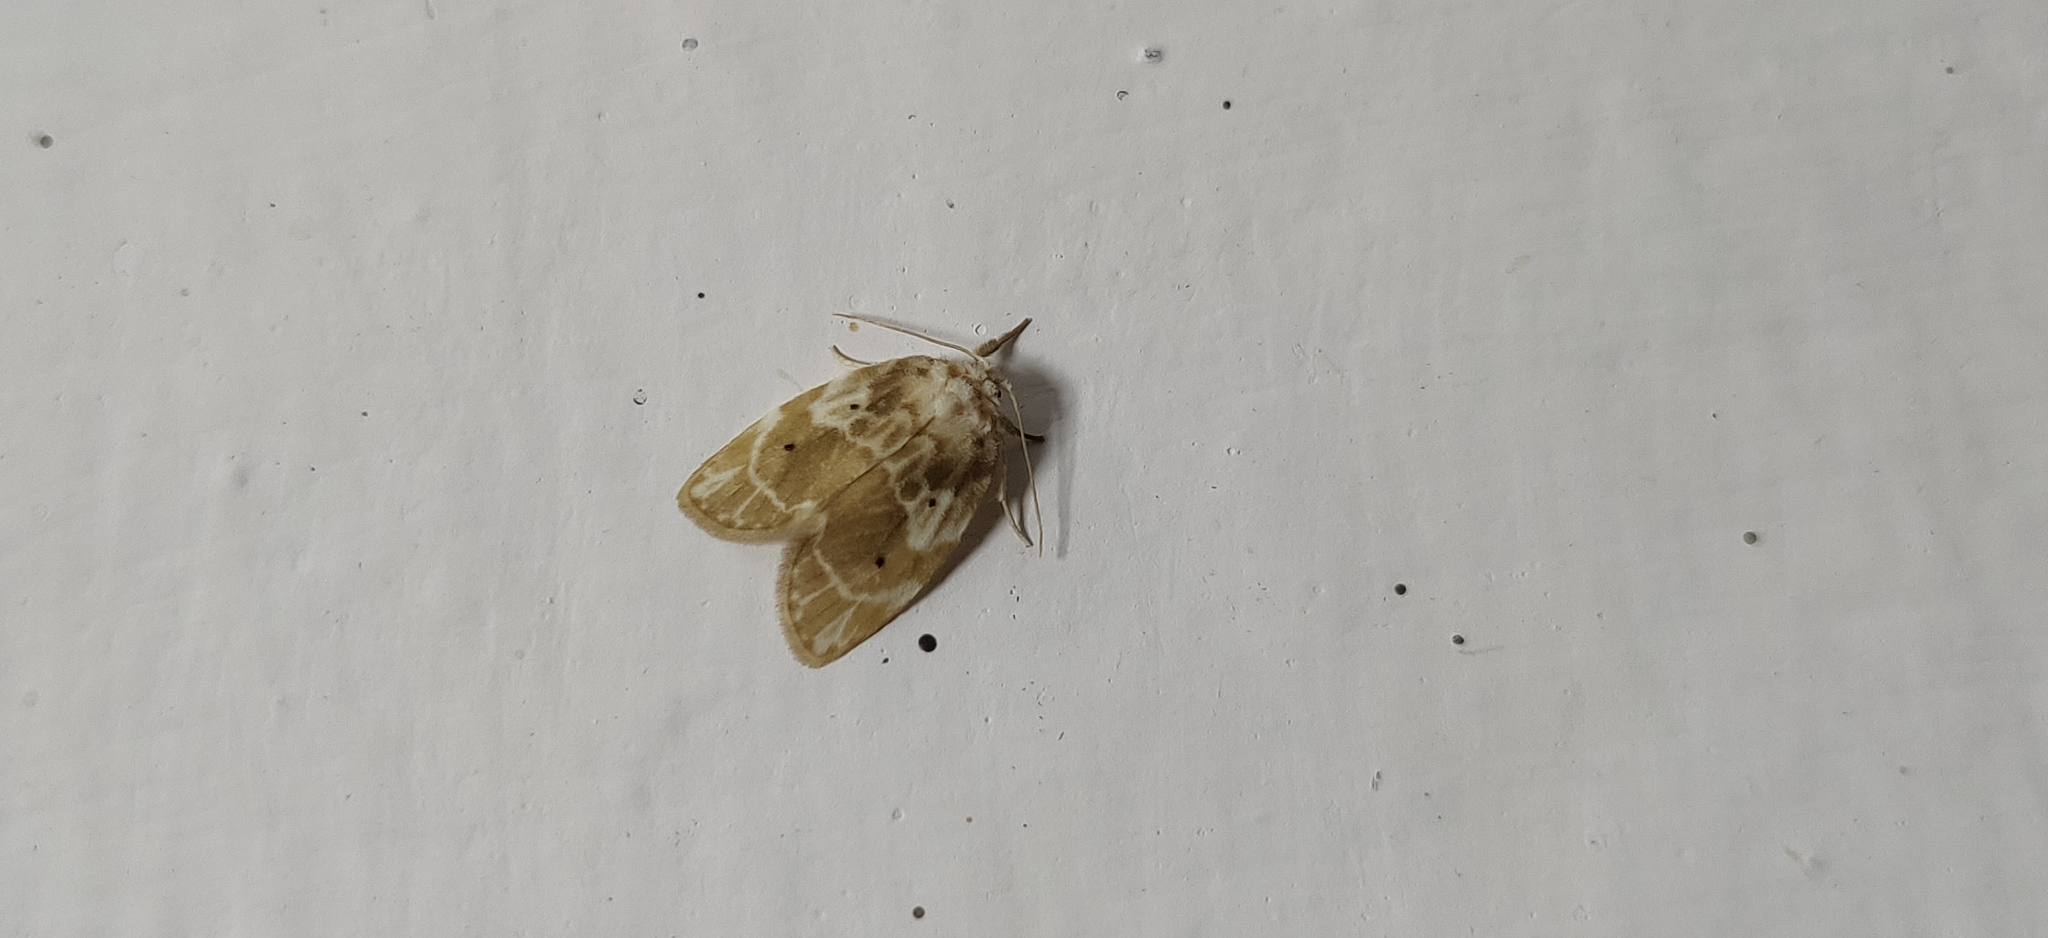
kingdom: Animalia
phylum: Arthropoda
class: Insecta
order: Lepidoptera
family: Erebidae
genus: Schistophleps
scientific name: Schistophleps bipuncta
